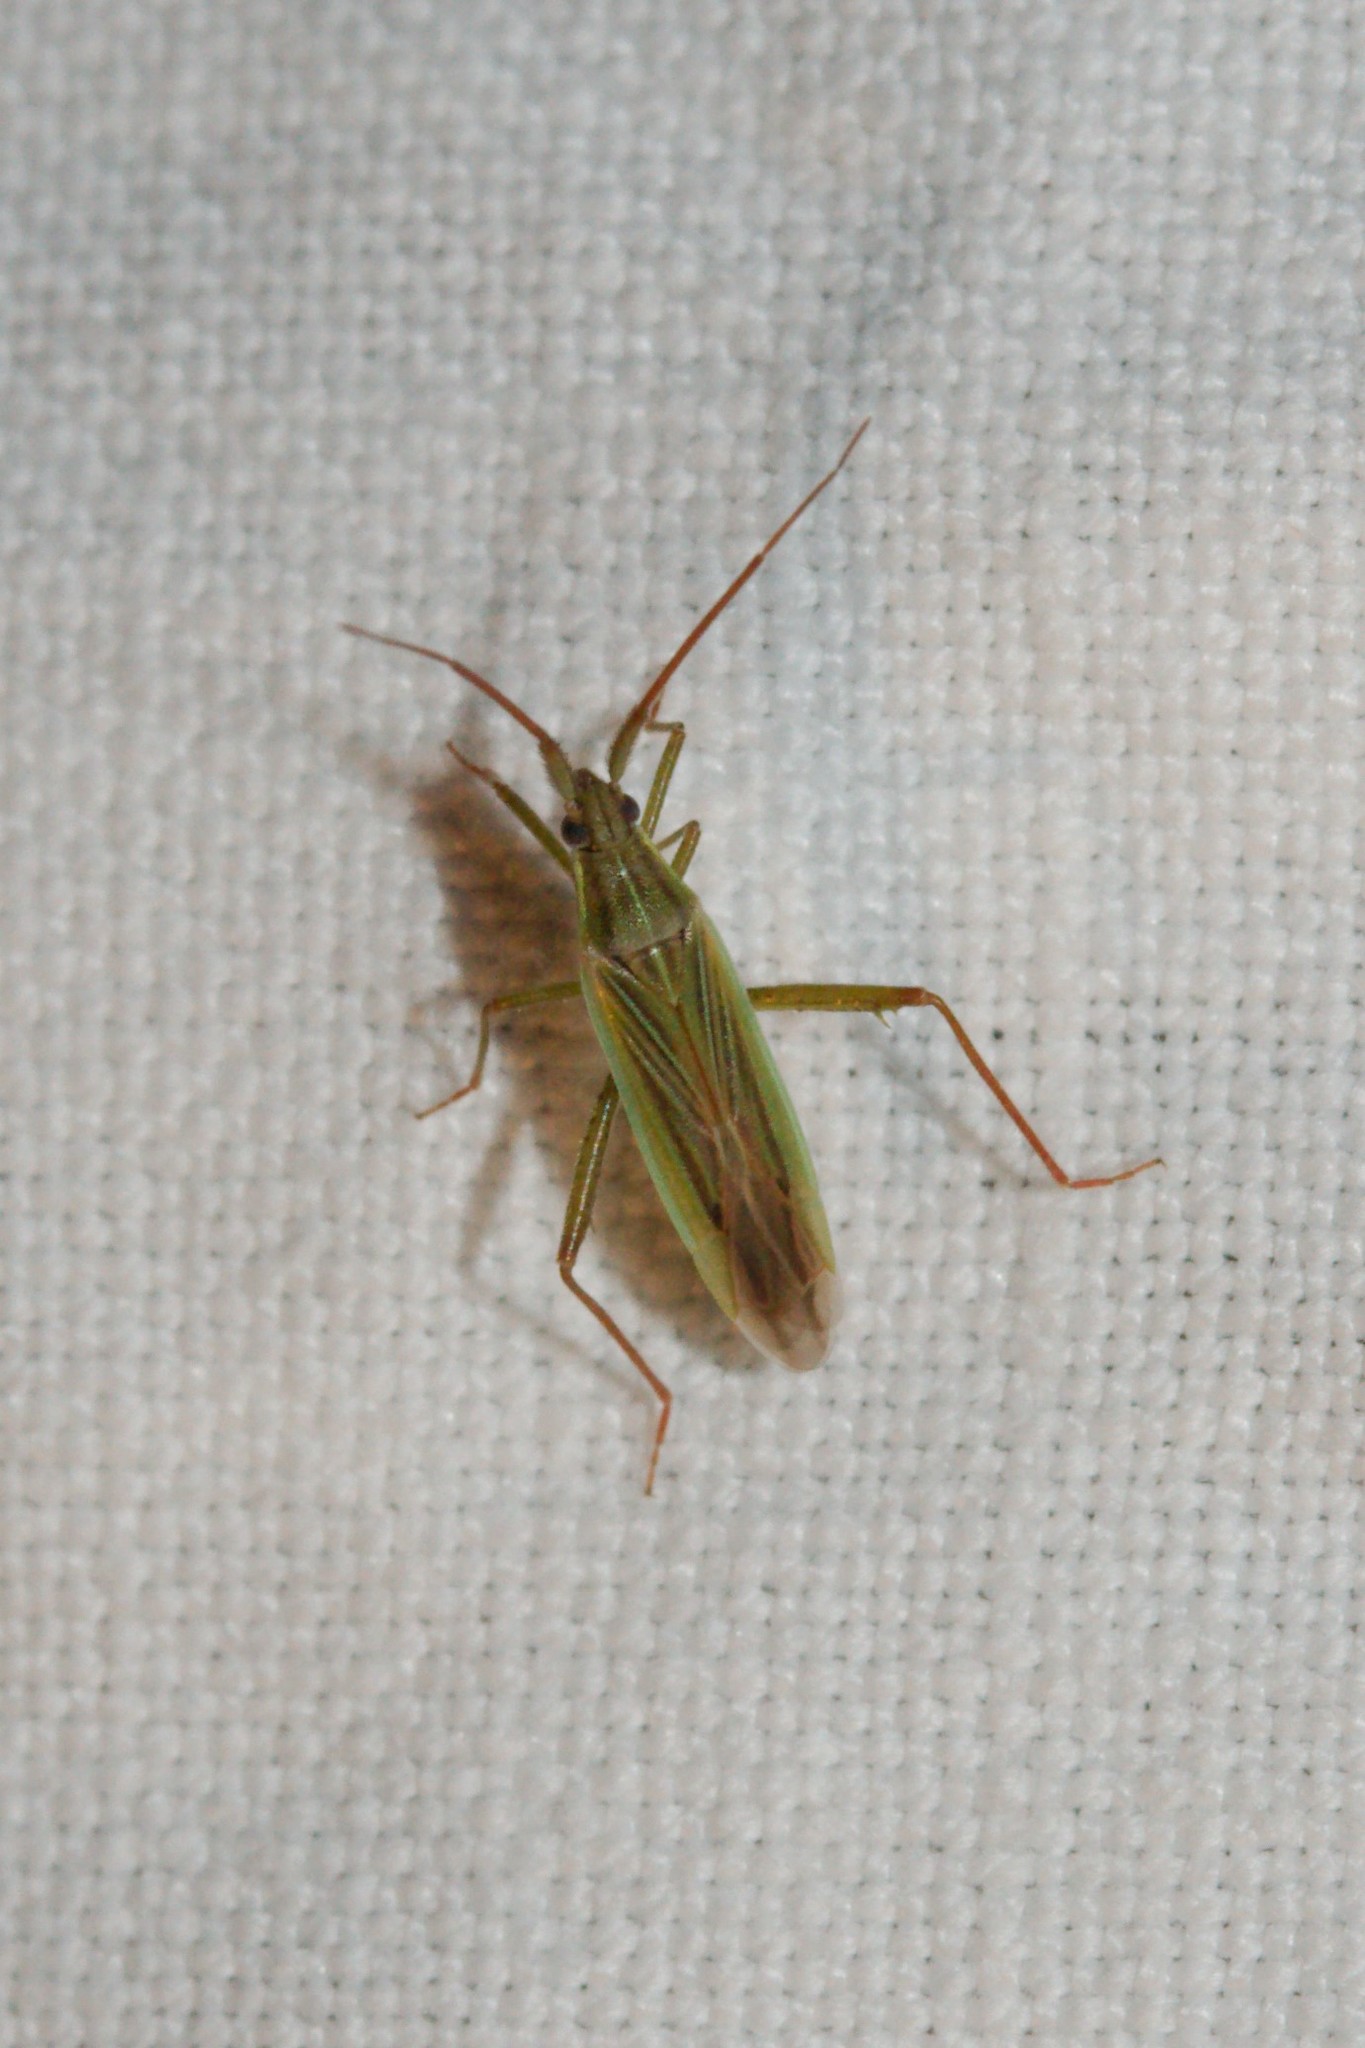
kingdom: Animalia
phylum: Arthropoda
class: Insecta
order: Hemiptera
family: Miridae
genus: Stenodema
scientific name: Stenodema calcarata
